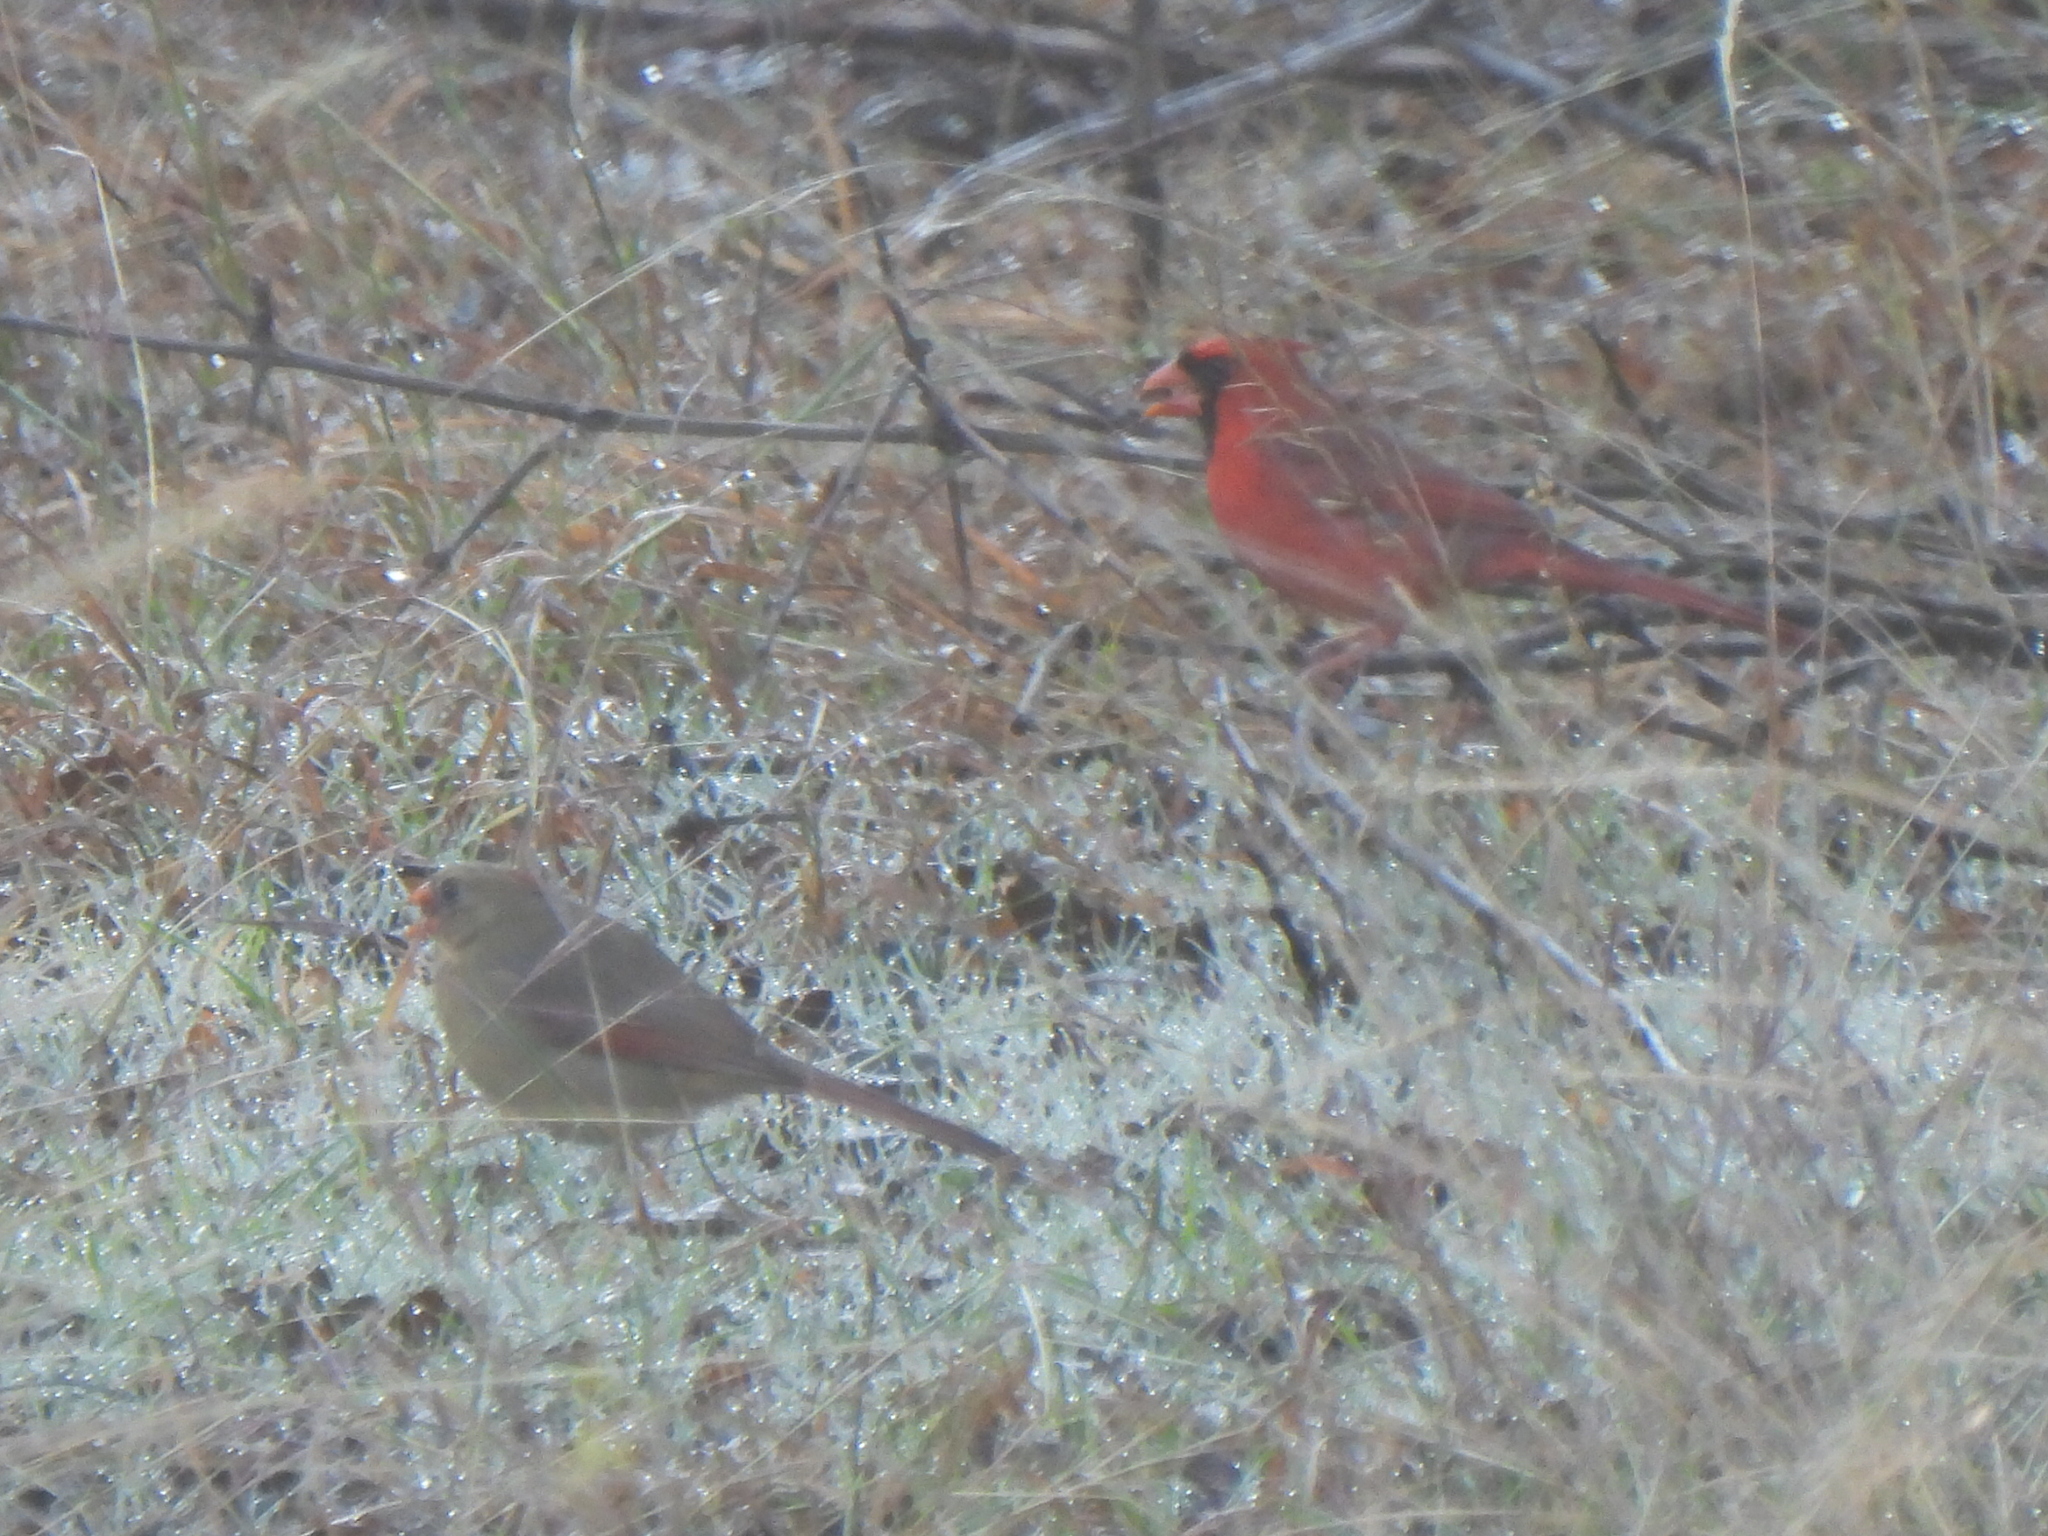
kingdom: Animalia
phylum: Chordata
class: Aves
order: Passeriformes
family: Cardinalidae
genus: Cardinalis
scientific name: Cardinalis cardinalis
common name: Northern cardinal
